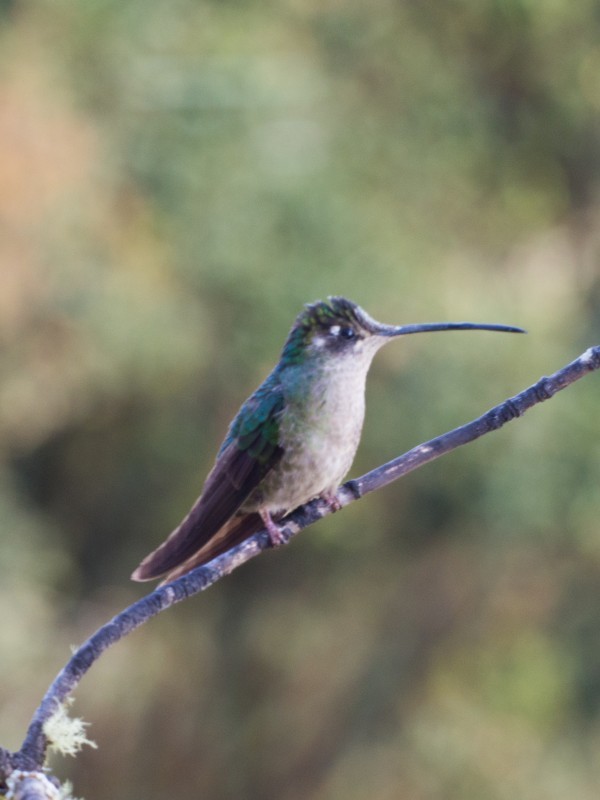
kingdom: Animalia
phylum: Chordata
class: Aves
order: Apodiformes
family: Trochilidae
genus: Eugenes
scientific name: Eugenes spectabilis
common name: Talamanca hummingbird
